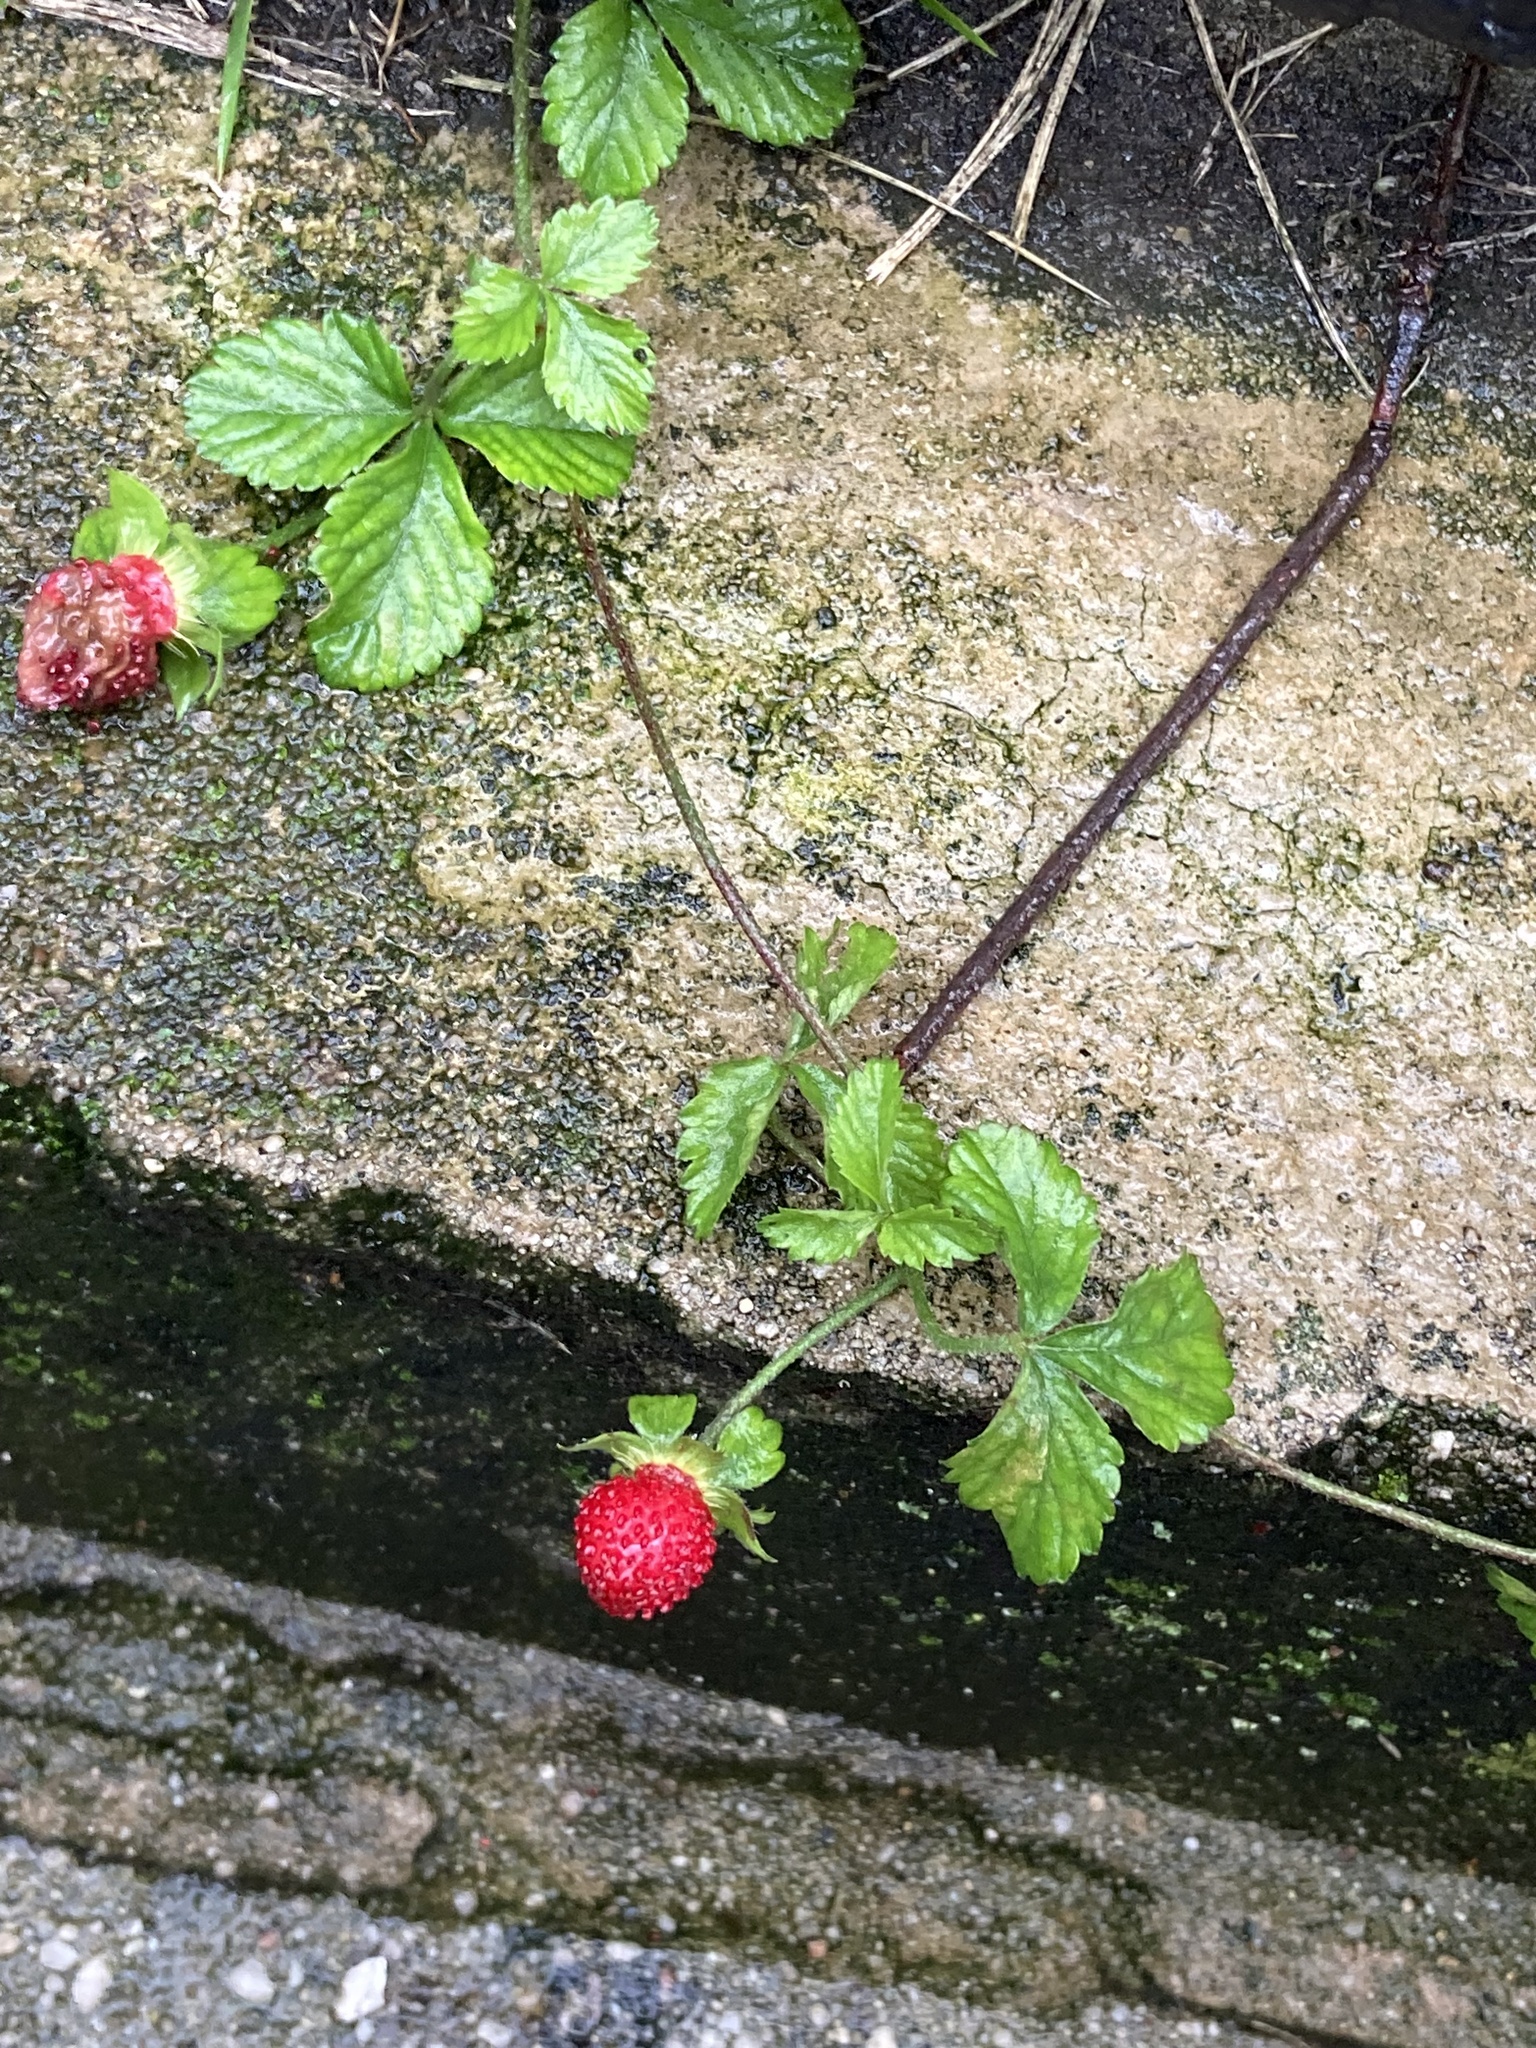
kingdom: Plantae
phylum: Tracheophyta
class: Magnoliopsida
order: Rosales
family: Rosaceae
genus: Potentilla
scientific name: Potentilla indica
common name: Yellow-flowered strawberry
